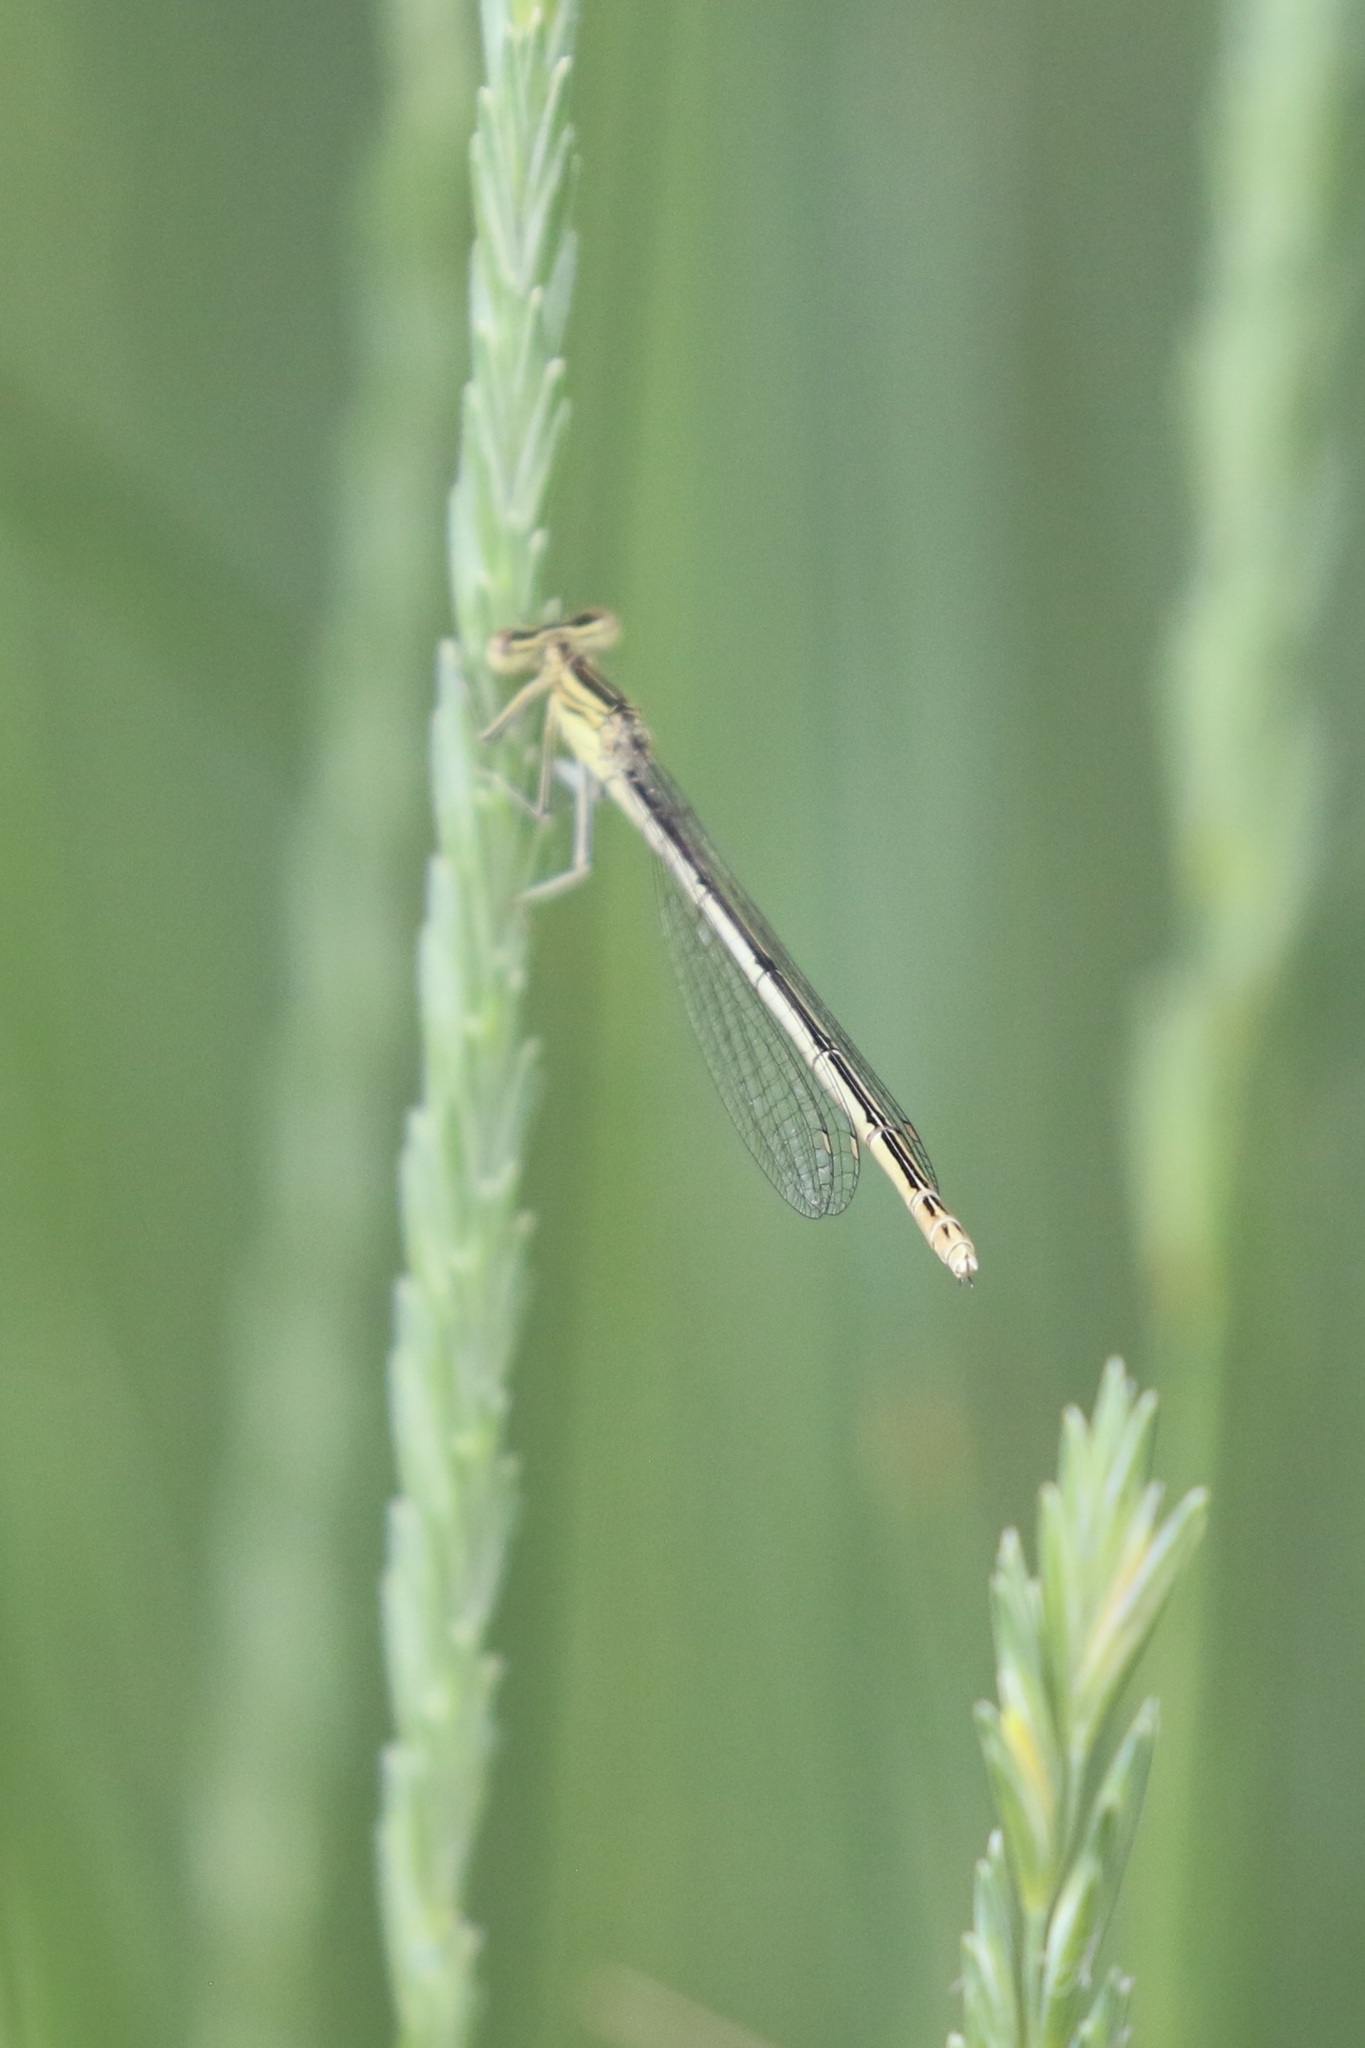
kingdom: Animalia
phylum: Arthropoda
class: Insecta
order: Odonata
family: Platycnemididae
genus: Platycnemis
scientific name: Platycnemis pennipes
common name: White-legged damselfly
